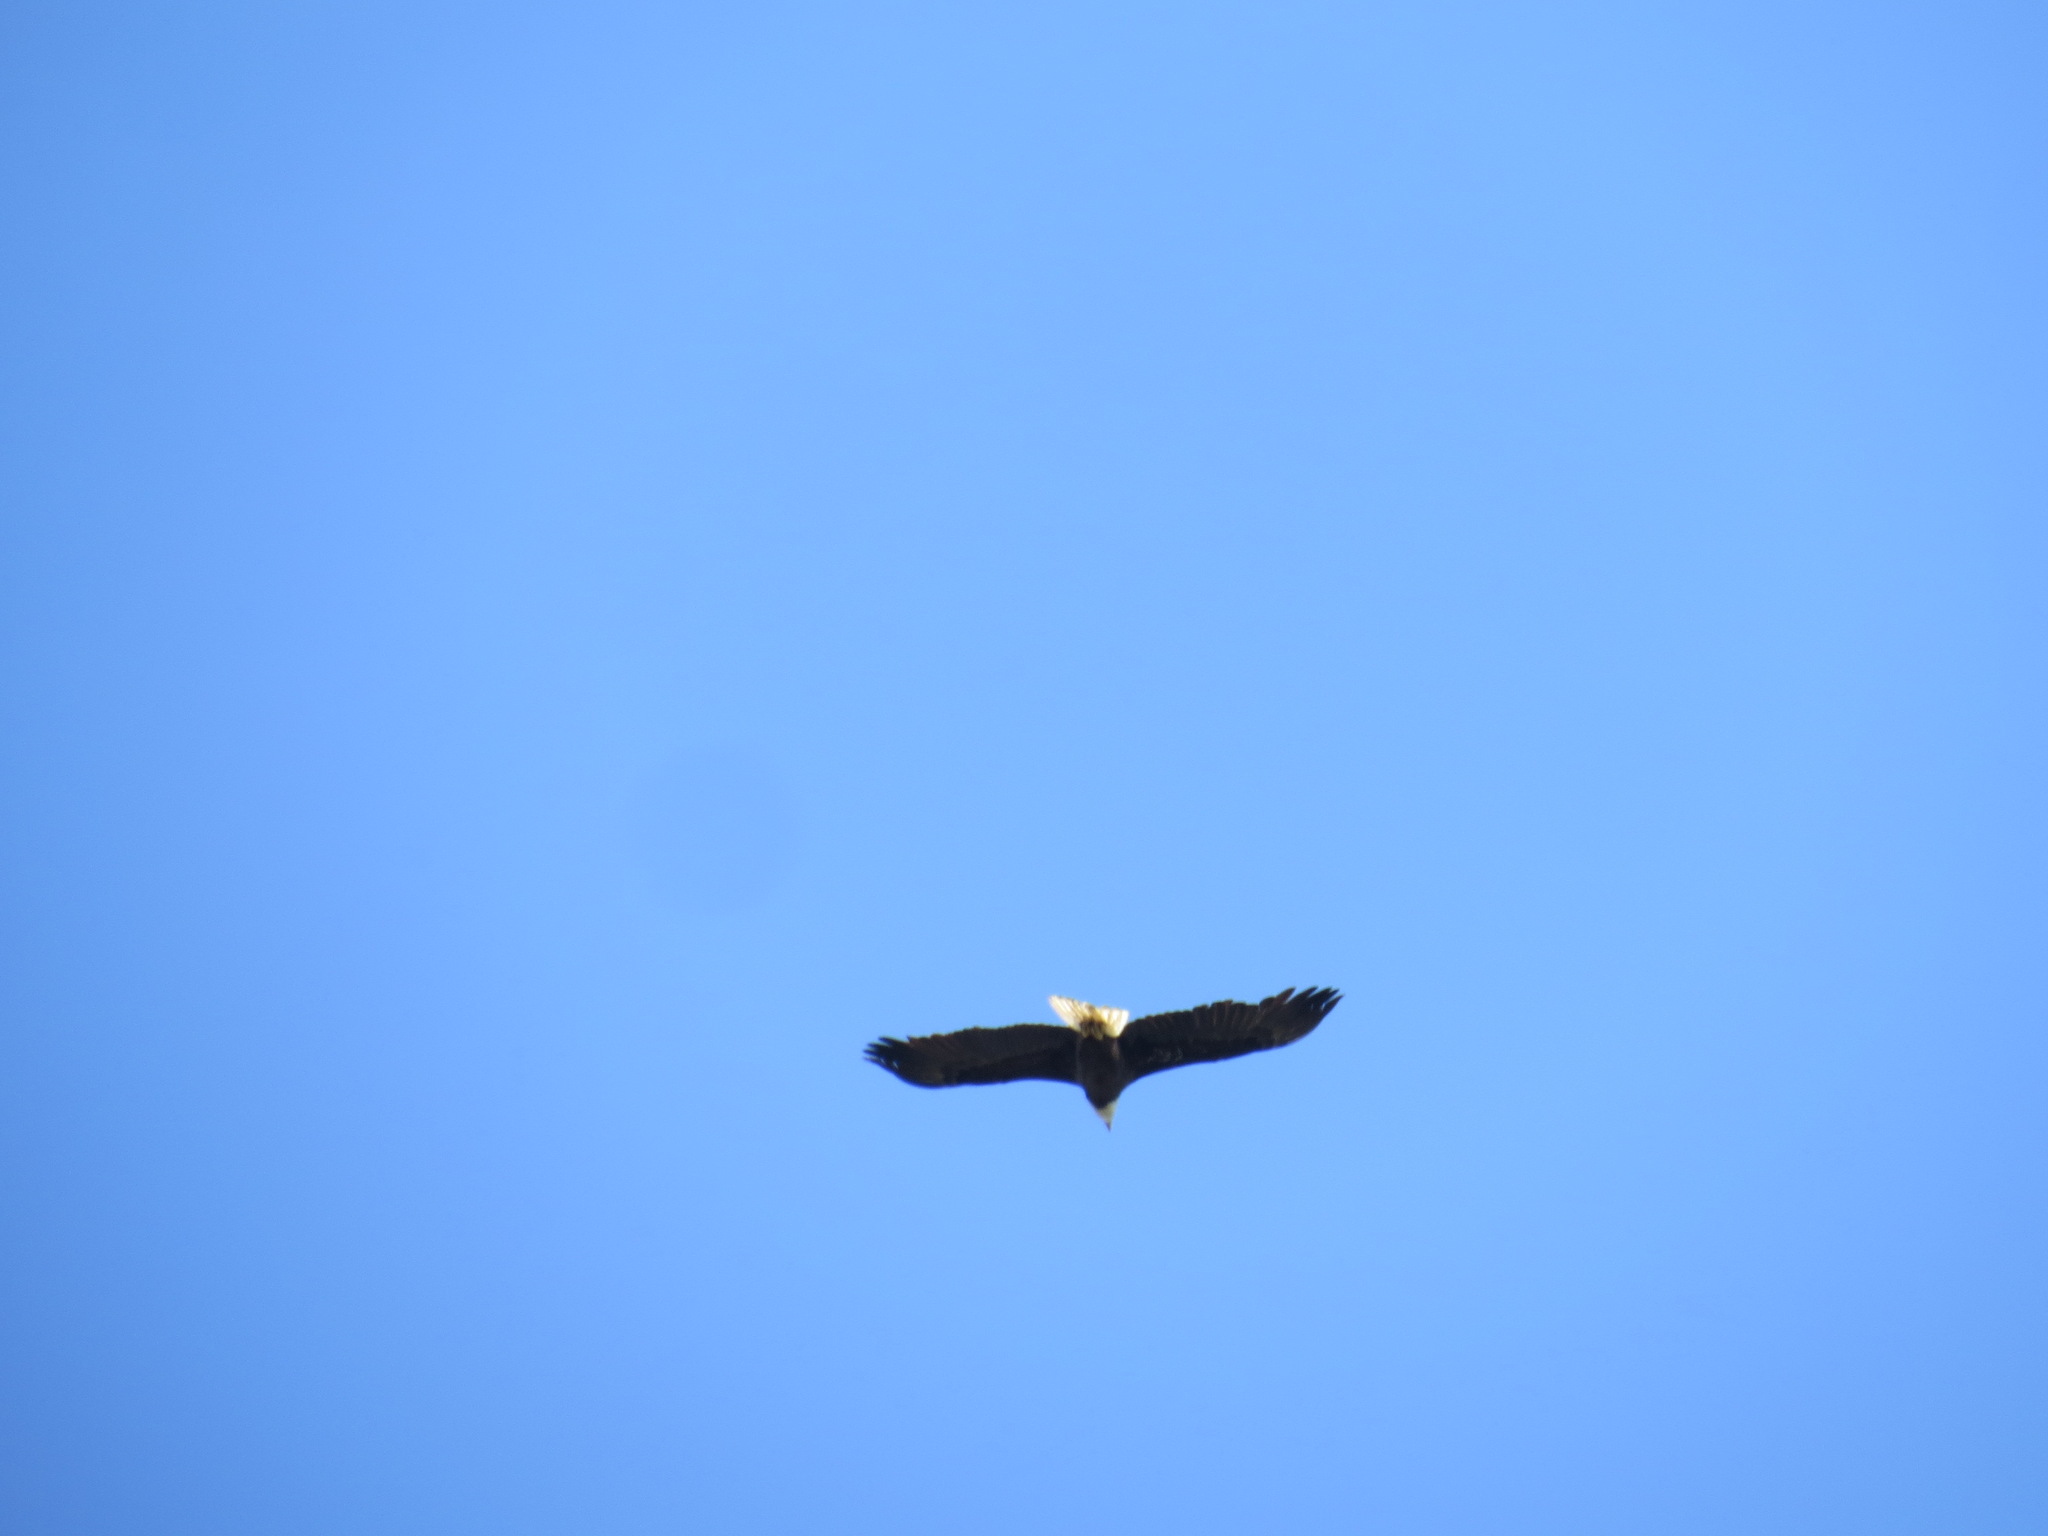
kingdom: Animalia
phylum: Chordata
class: Aves
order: Accipitriformes
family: Accipitridae
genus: Haliaeetus
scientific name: Haliaeetus leucocephalus
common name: Bald eagle
